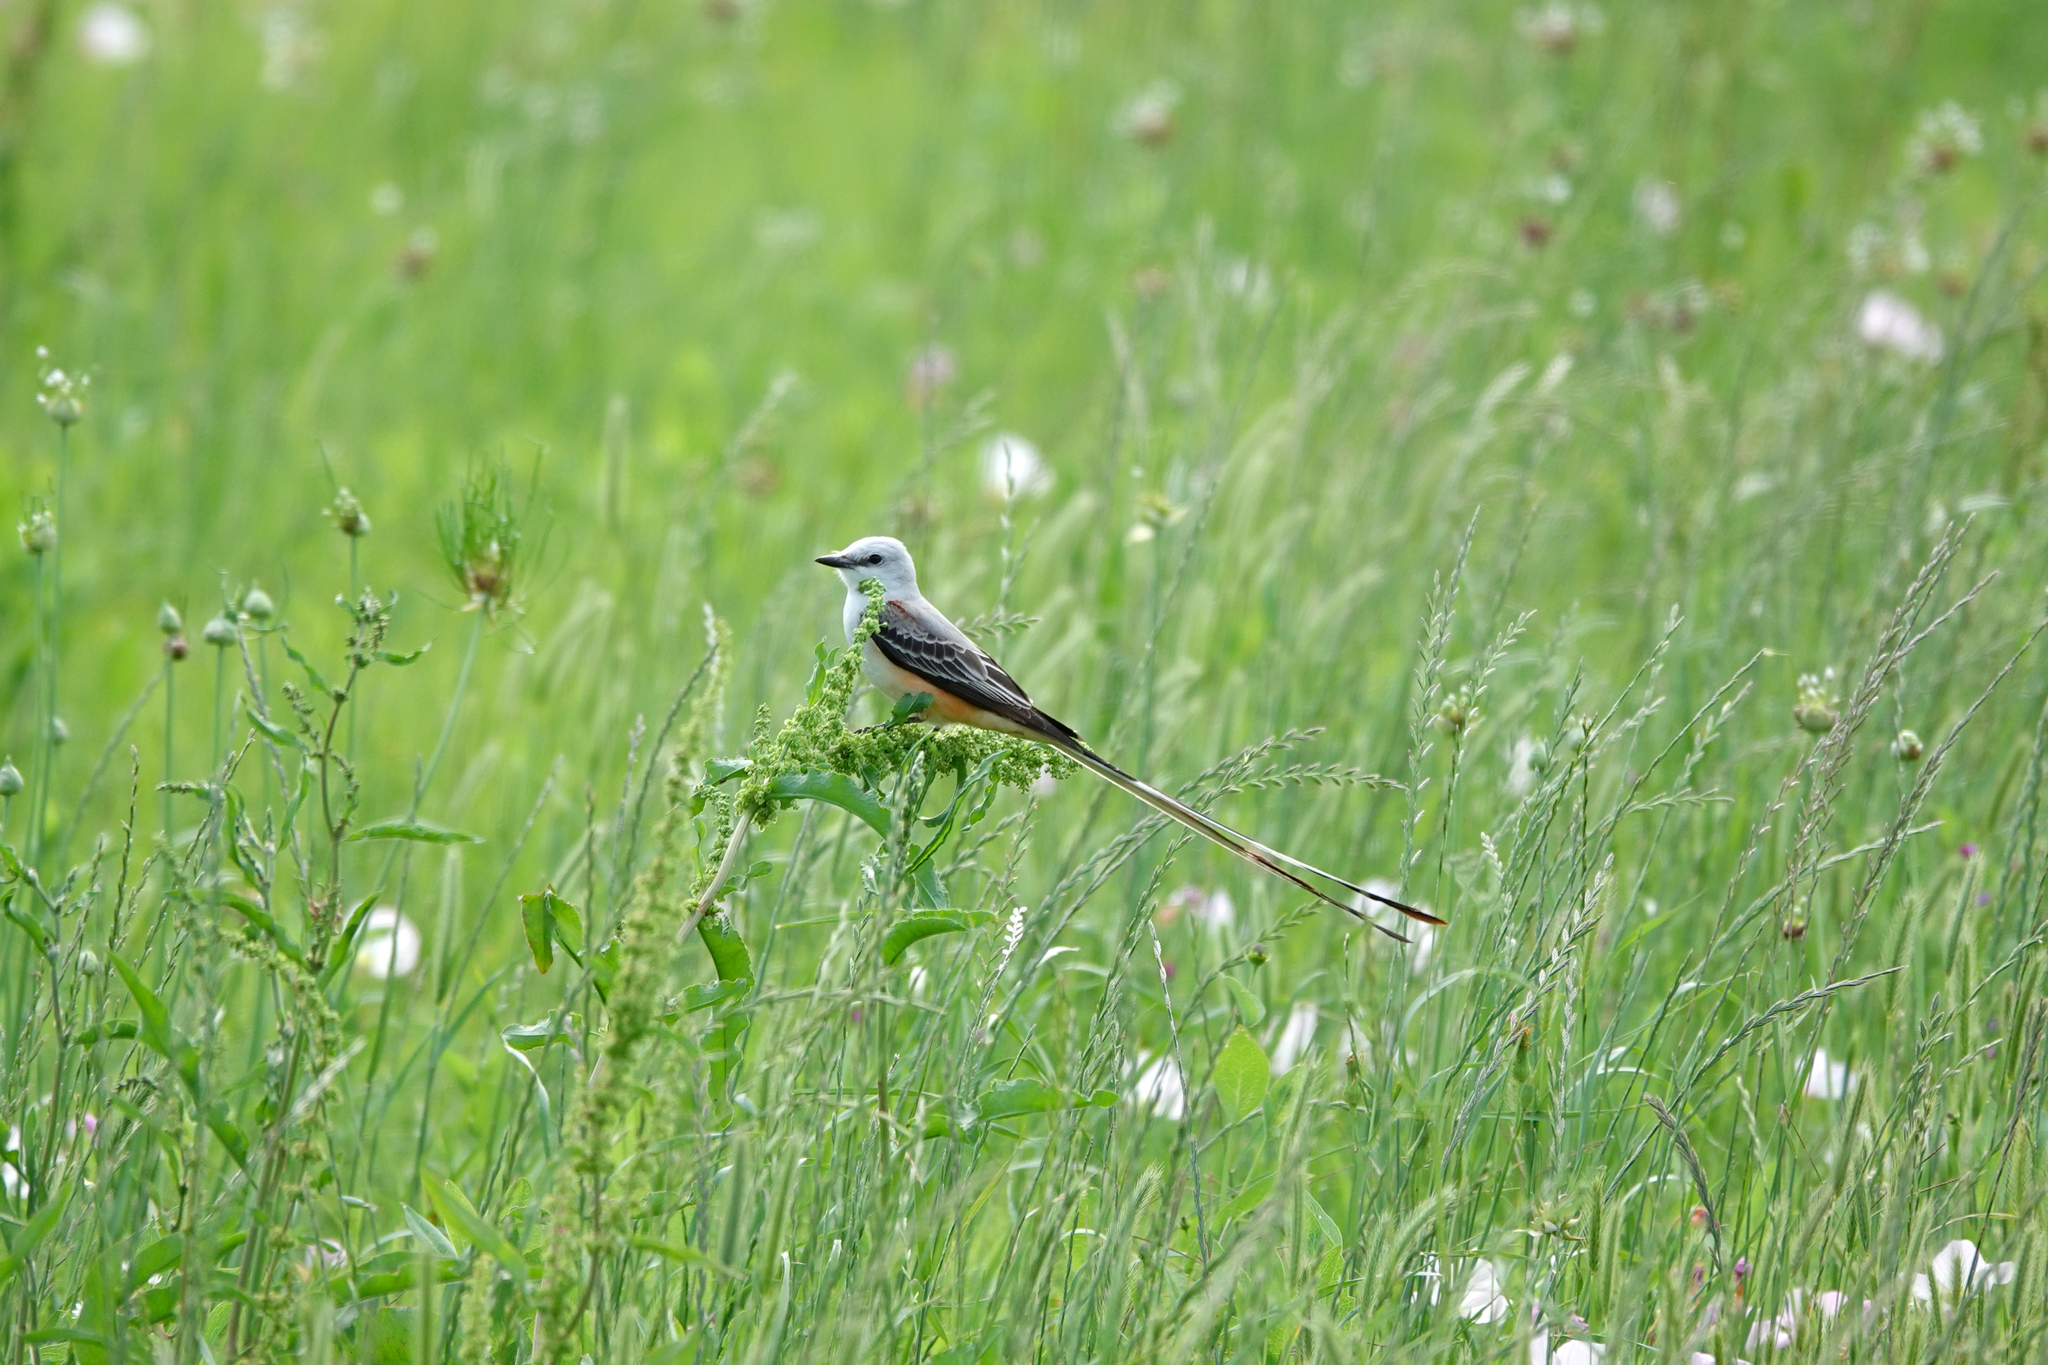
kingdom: Animalia
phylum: Chordata
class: Aves
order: Passeriformes
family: Tyrannidae
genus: Tyrannus
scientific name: Tyrannus forficatus
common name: Scissor-tailed flycatcher
